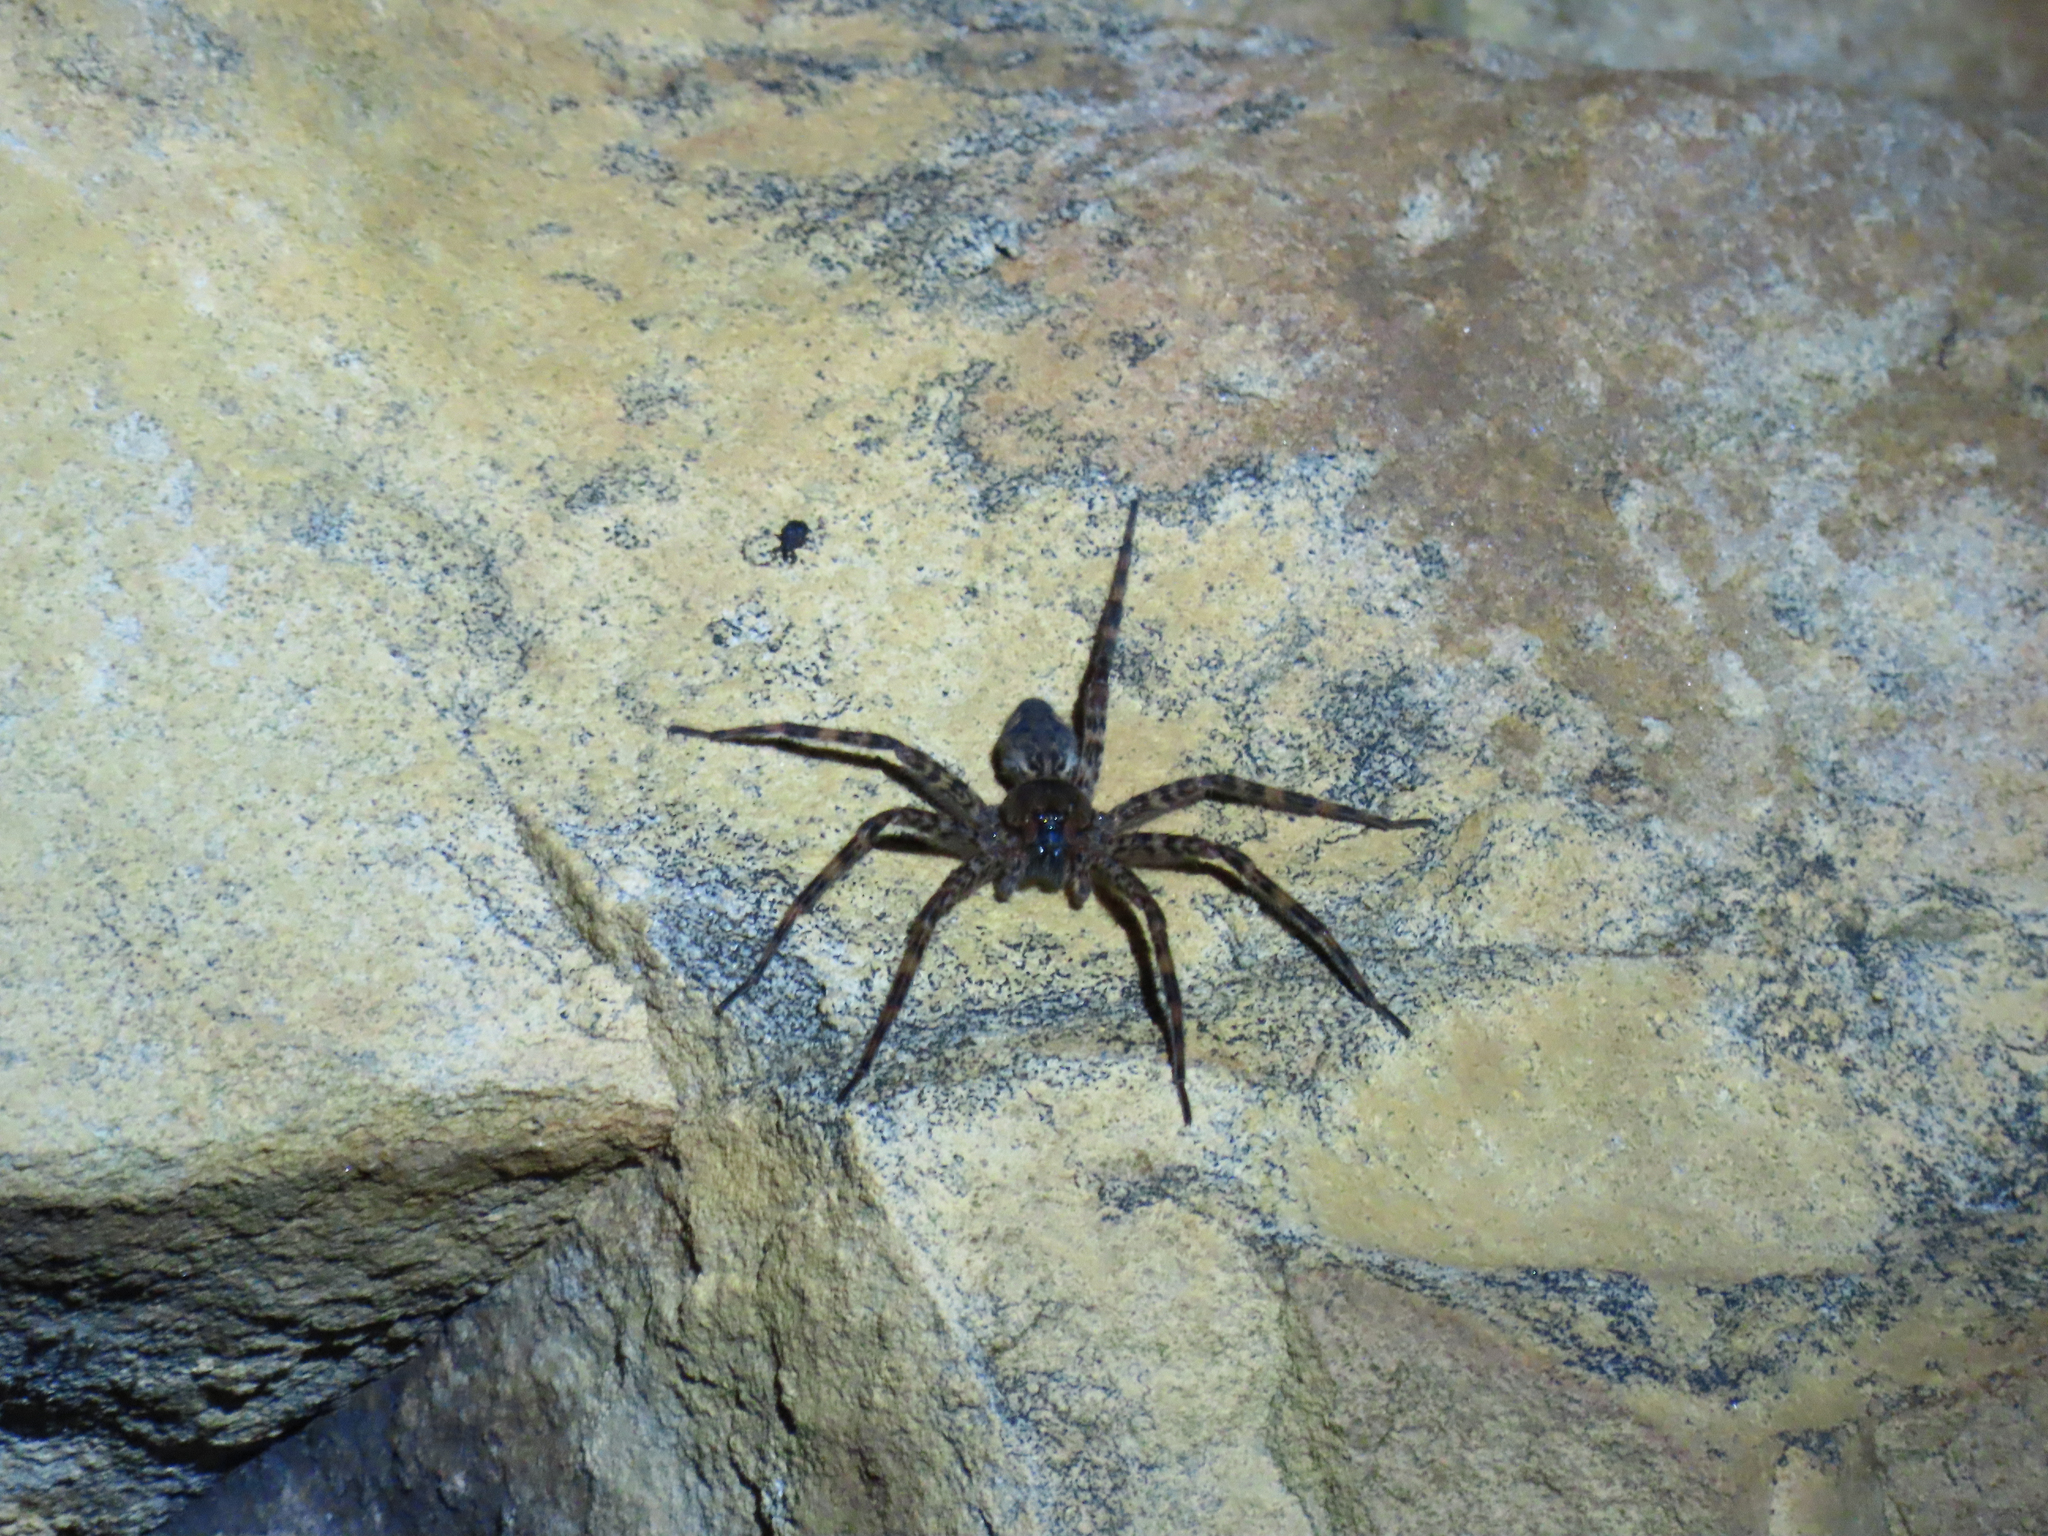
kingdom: Animalia
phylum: Arthropoda
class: Arachnida
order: Araneae
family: Pisauridae
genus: Dolomedes
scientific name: Dolomedes tenebrosus
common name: Dark fishing spider
